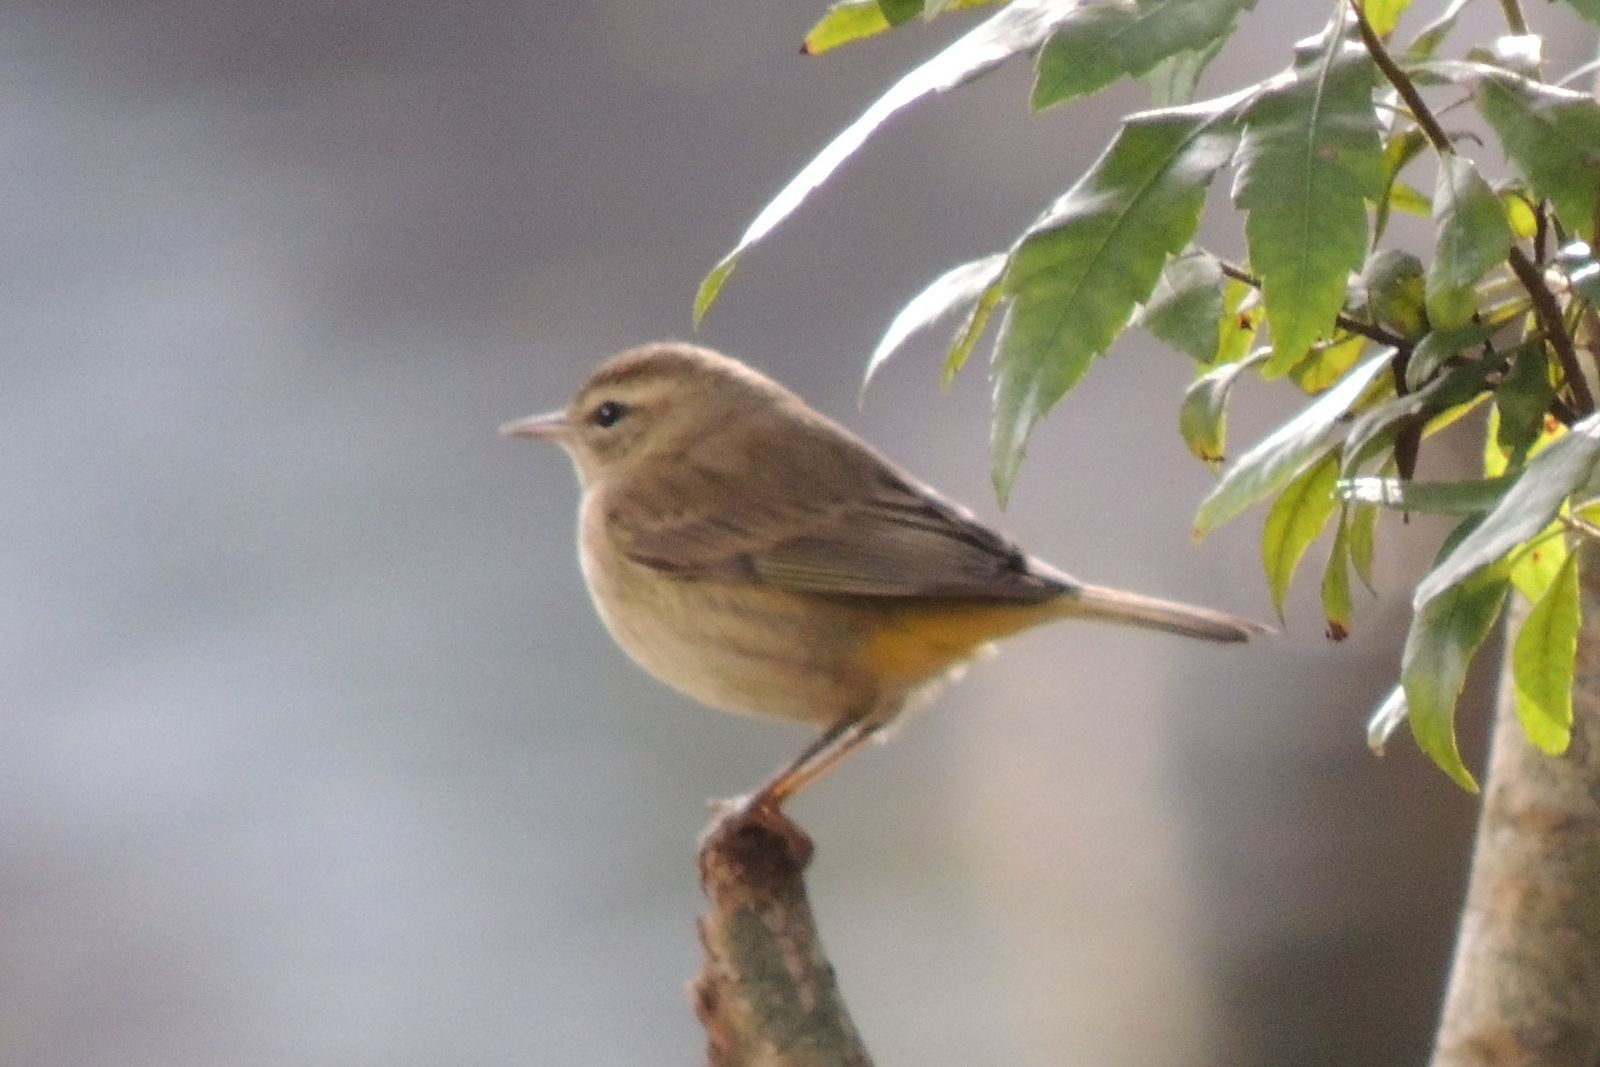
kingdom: Animalia
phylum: Chordata
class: Aves
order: Passeriformes
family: Parulidae
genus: Setophaga
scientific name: Setophaga palmarum
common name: Palm warbler
